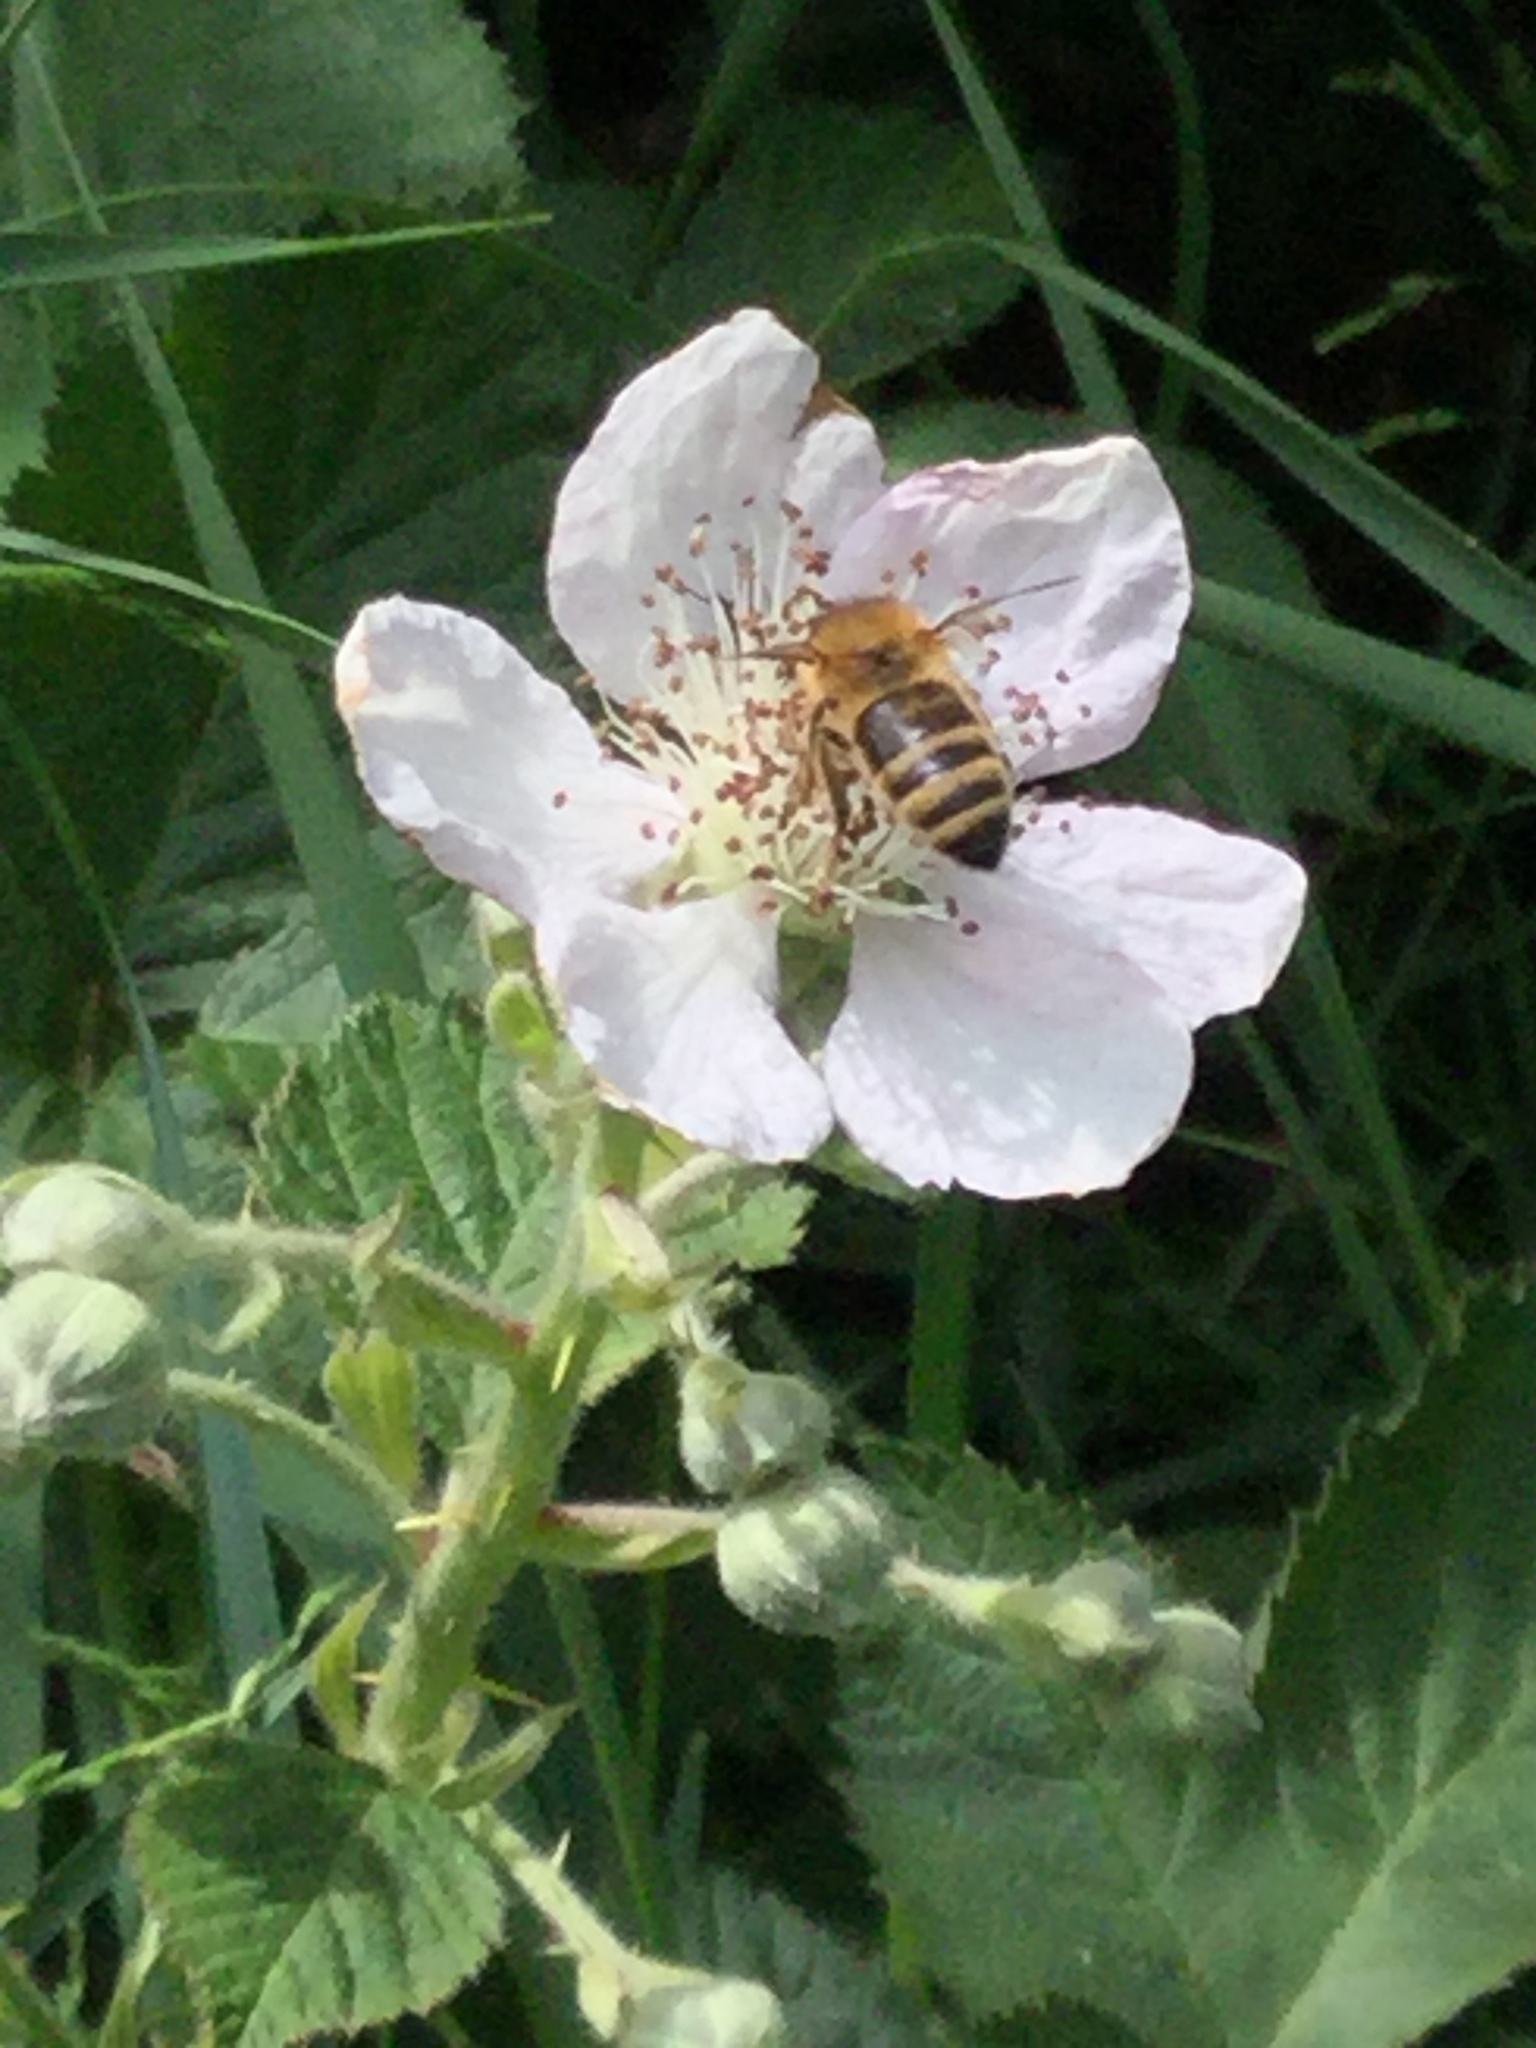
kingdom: Animalia
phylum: Arthropoda
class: Insecta
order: Hymenoptera
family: Apidae
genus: Apis
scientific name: Apis mellifera
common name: Honey bee
